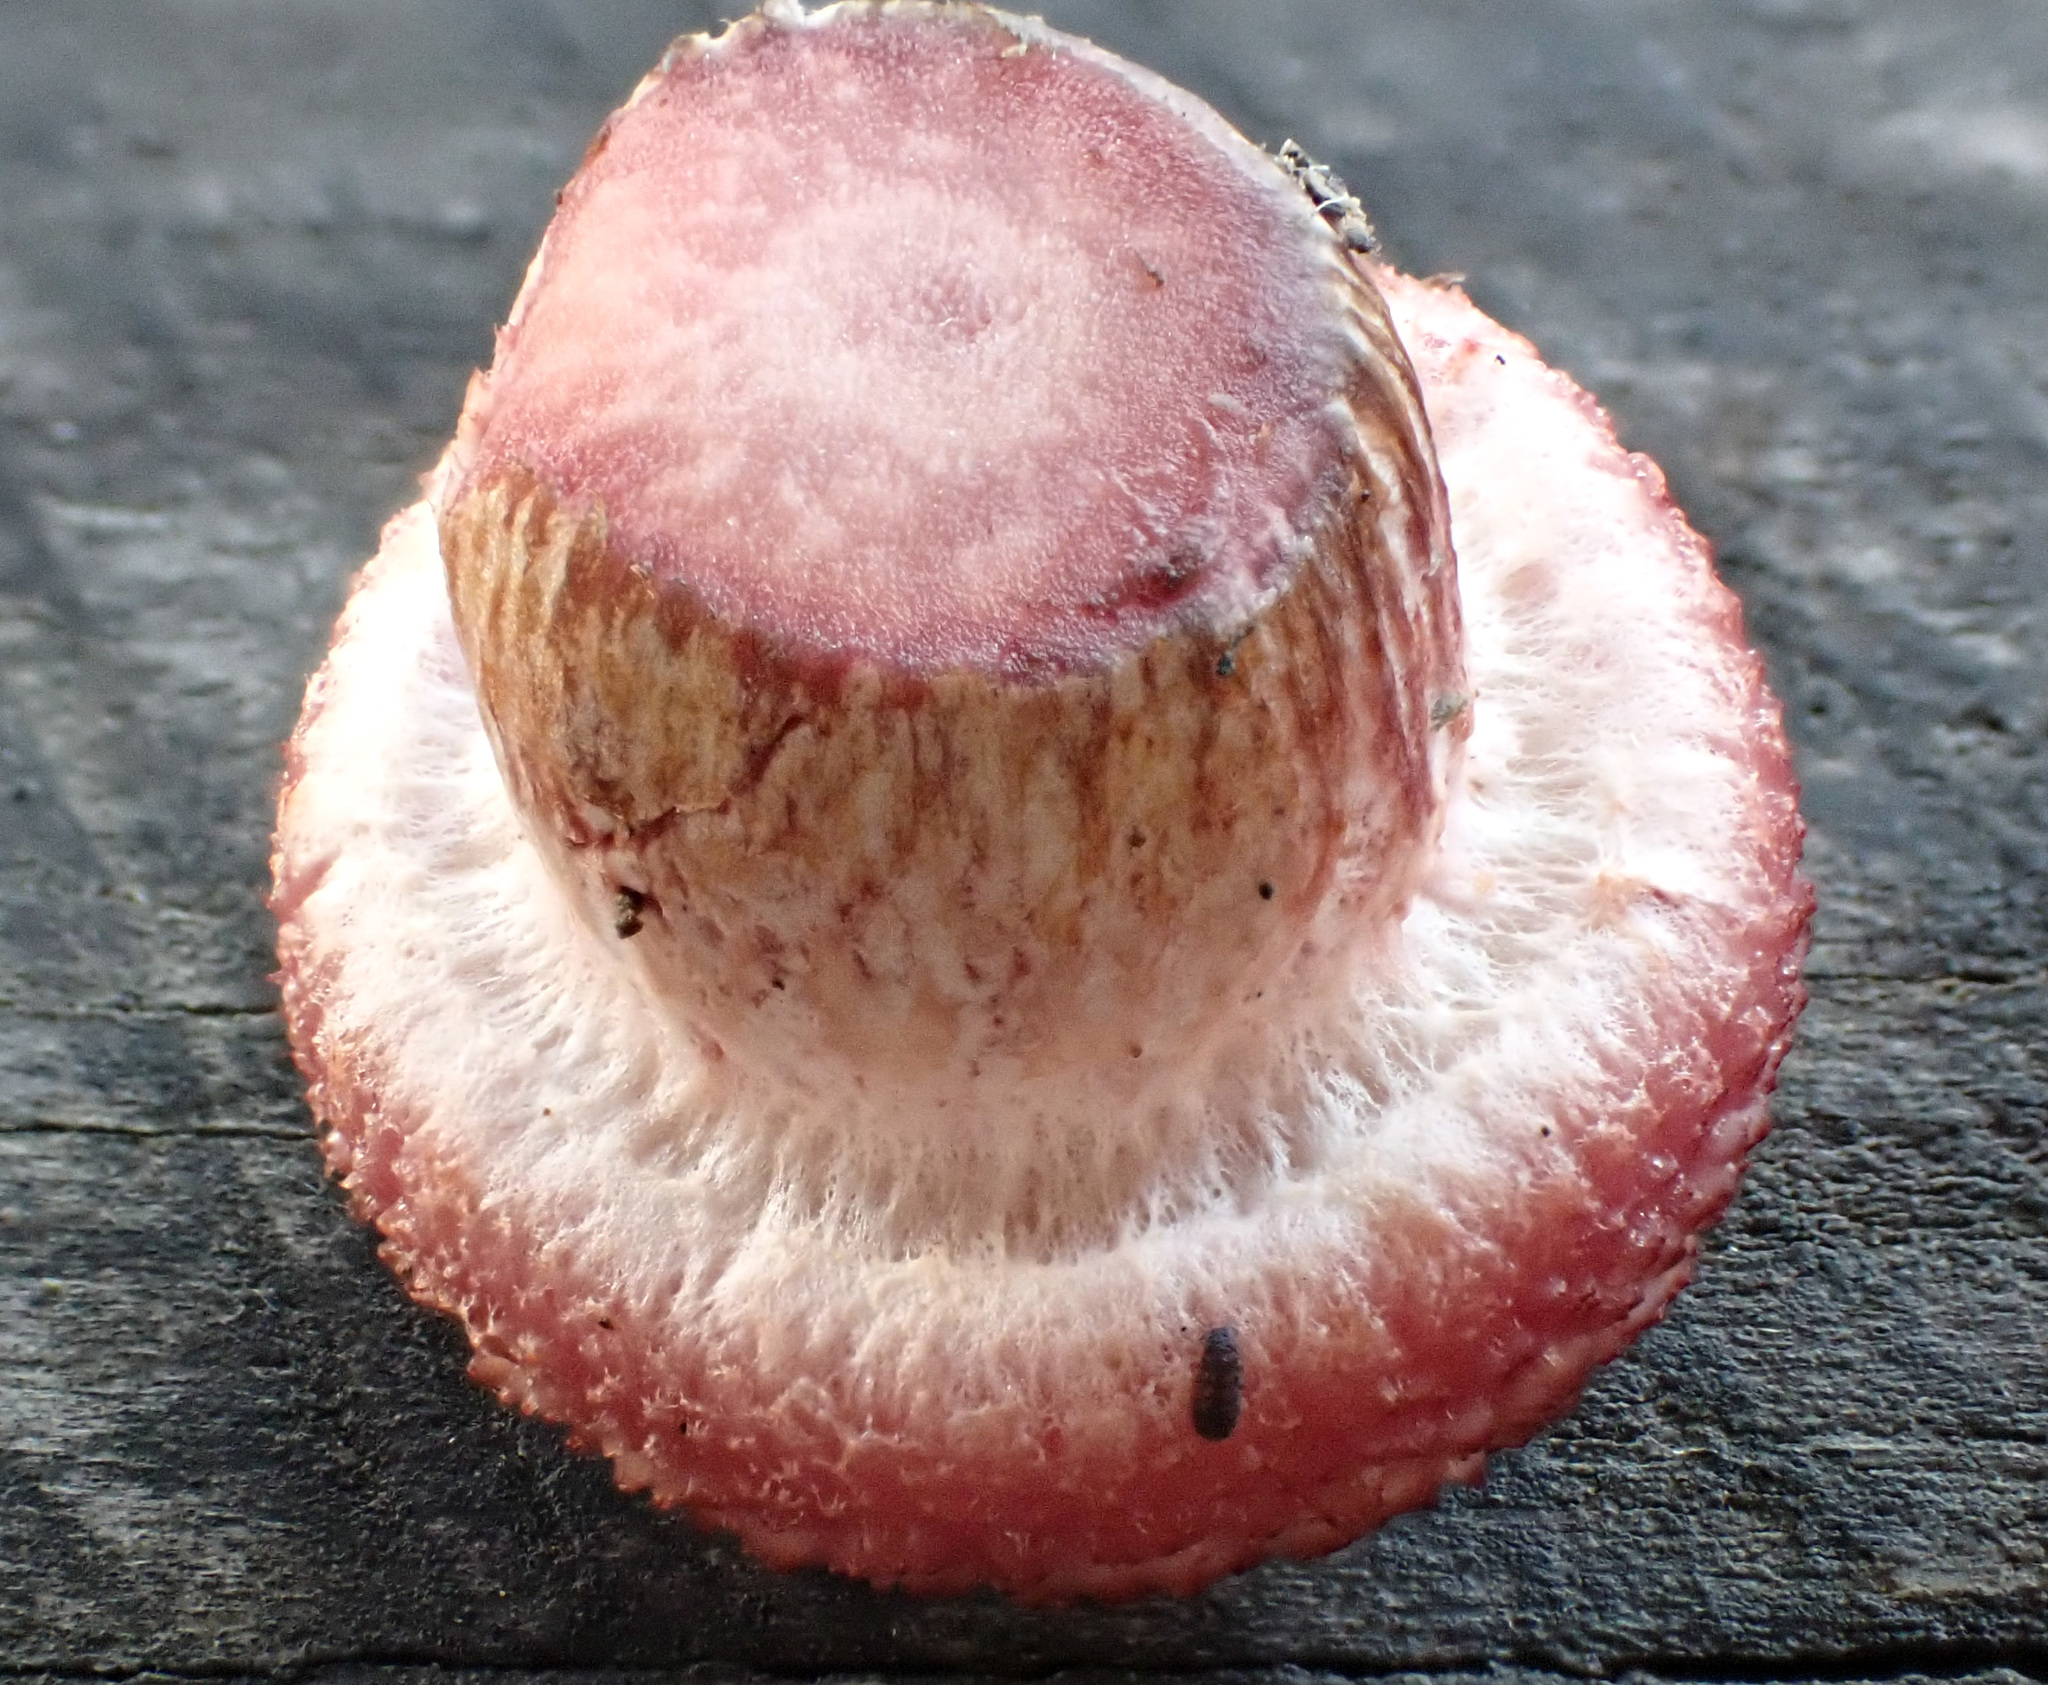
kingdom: Fungi
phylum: Basidiomycota
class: Agaricomycetes
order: Agaricales
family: Hymenogastraceae
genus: Gymnopilus
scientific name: Gymnopilus luteofolius
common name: Yellow-gilled gymnopilus
